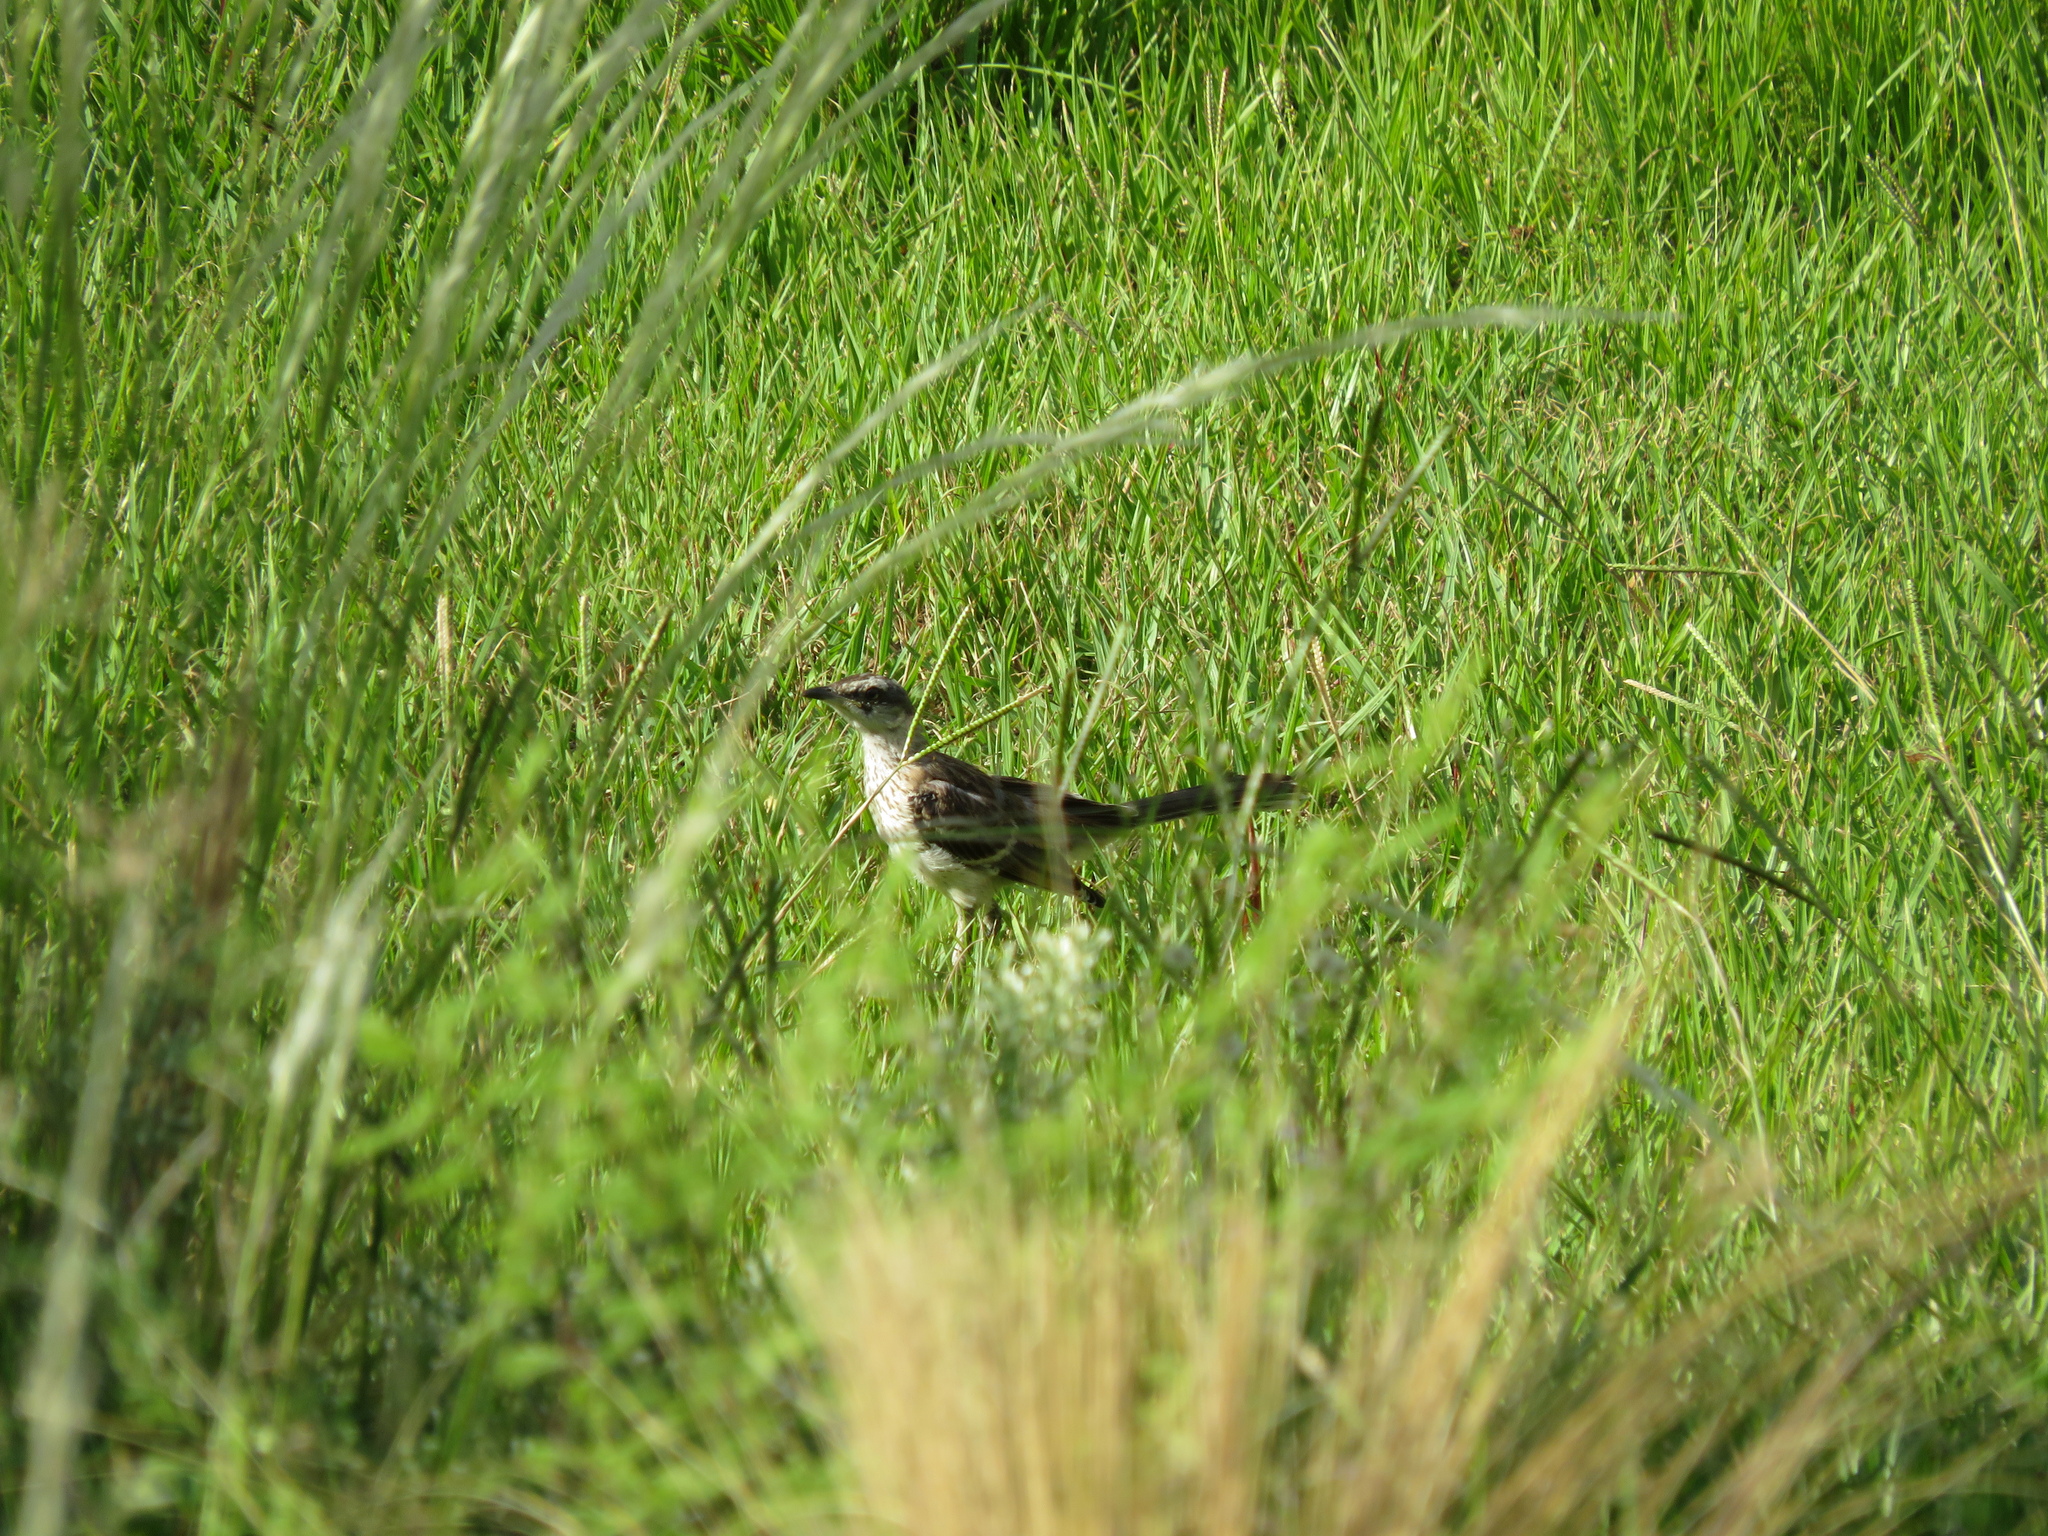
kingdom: Animalia
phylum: Chordata
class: Aves
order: Passeriformes
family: Mimidae
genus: Mimus
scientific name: Mimus saturninus
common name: Chalk-browed mockingbird
